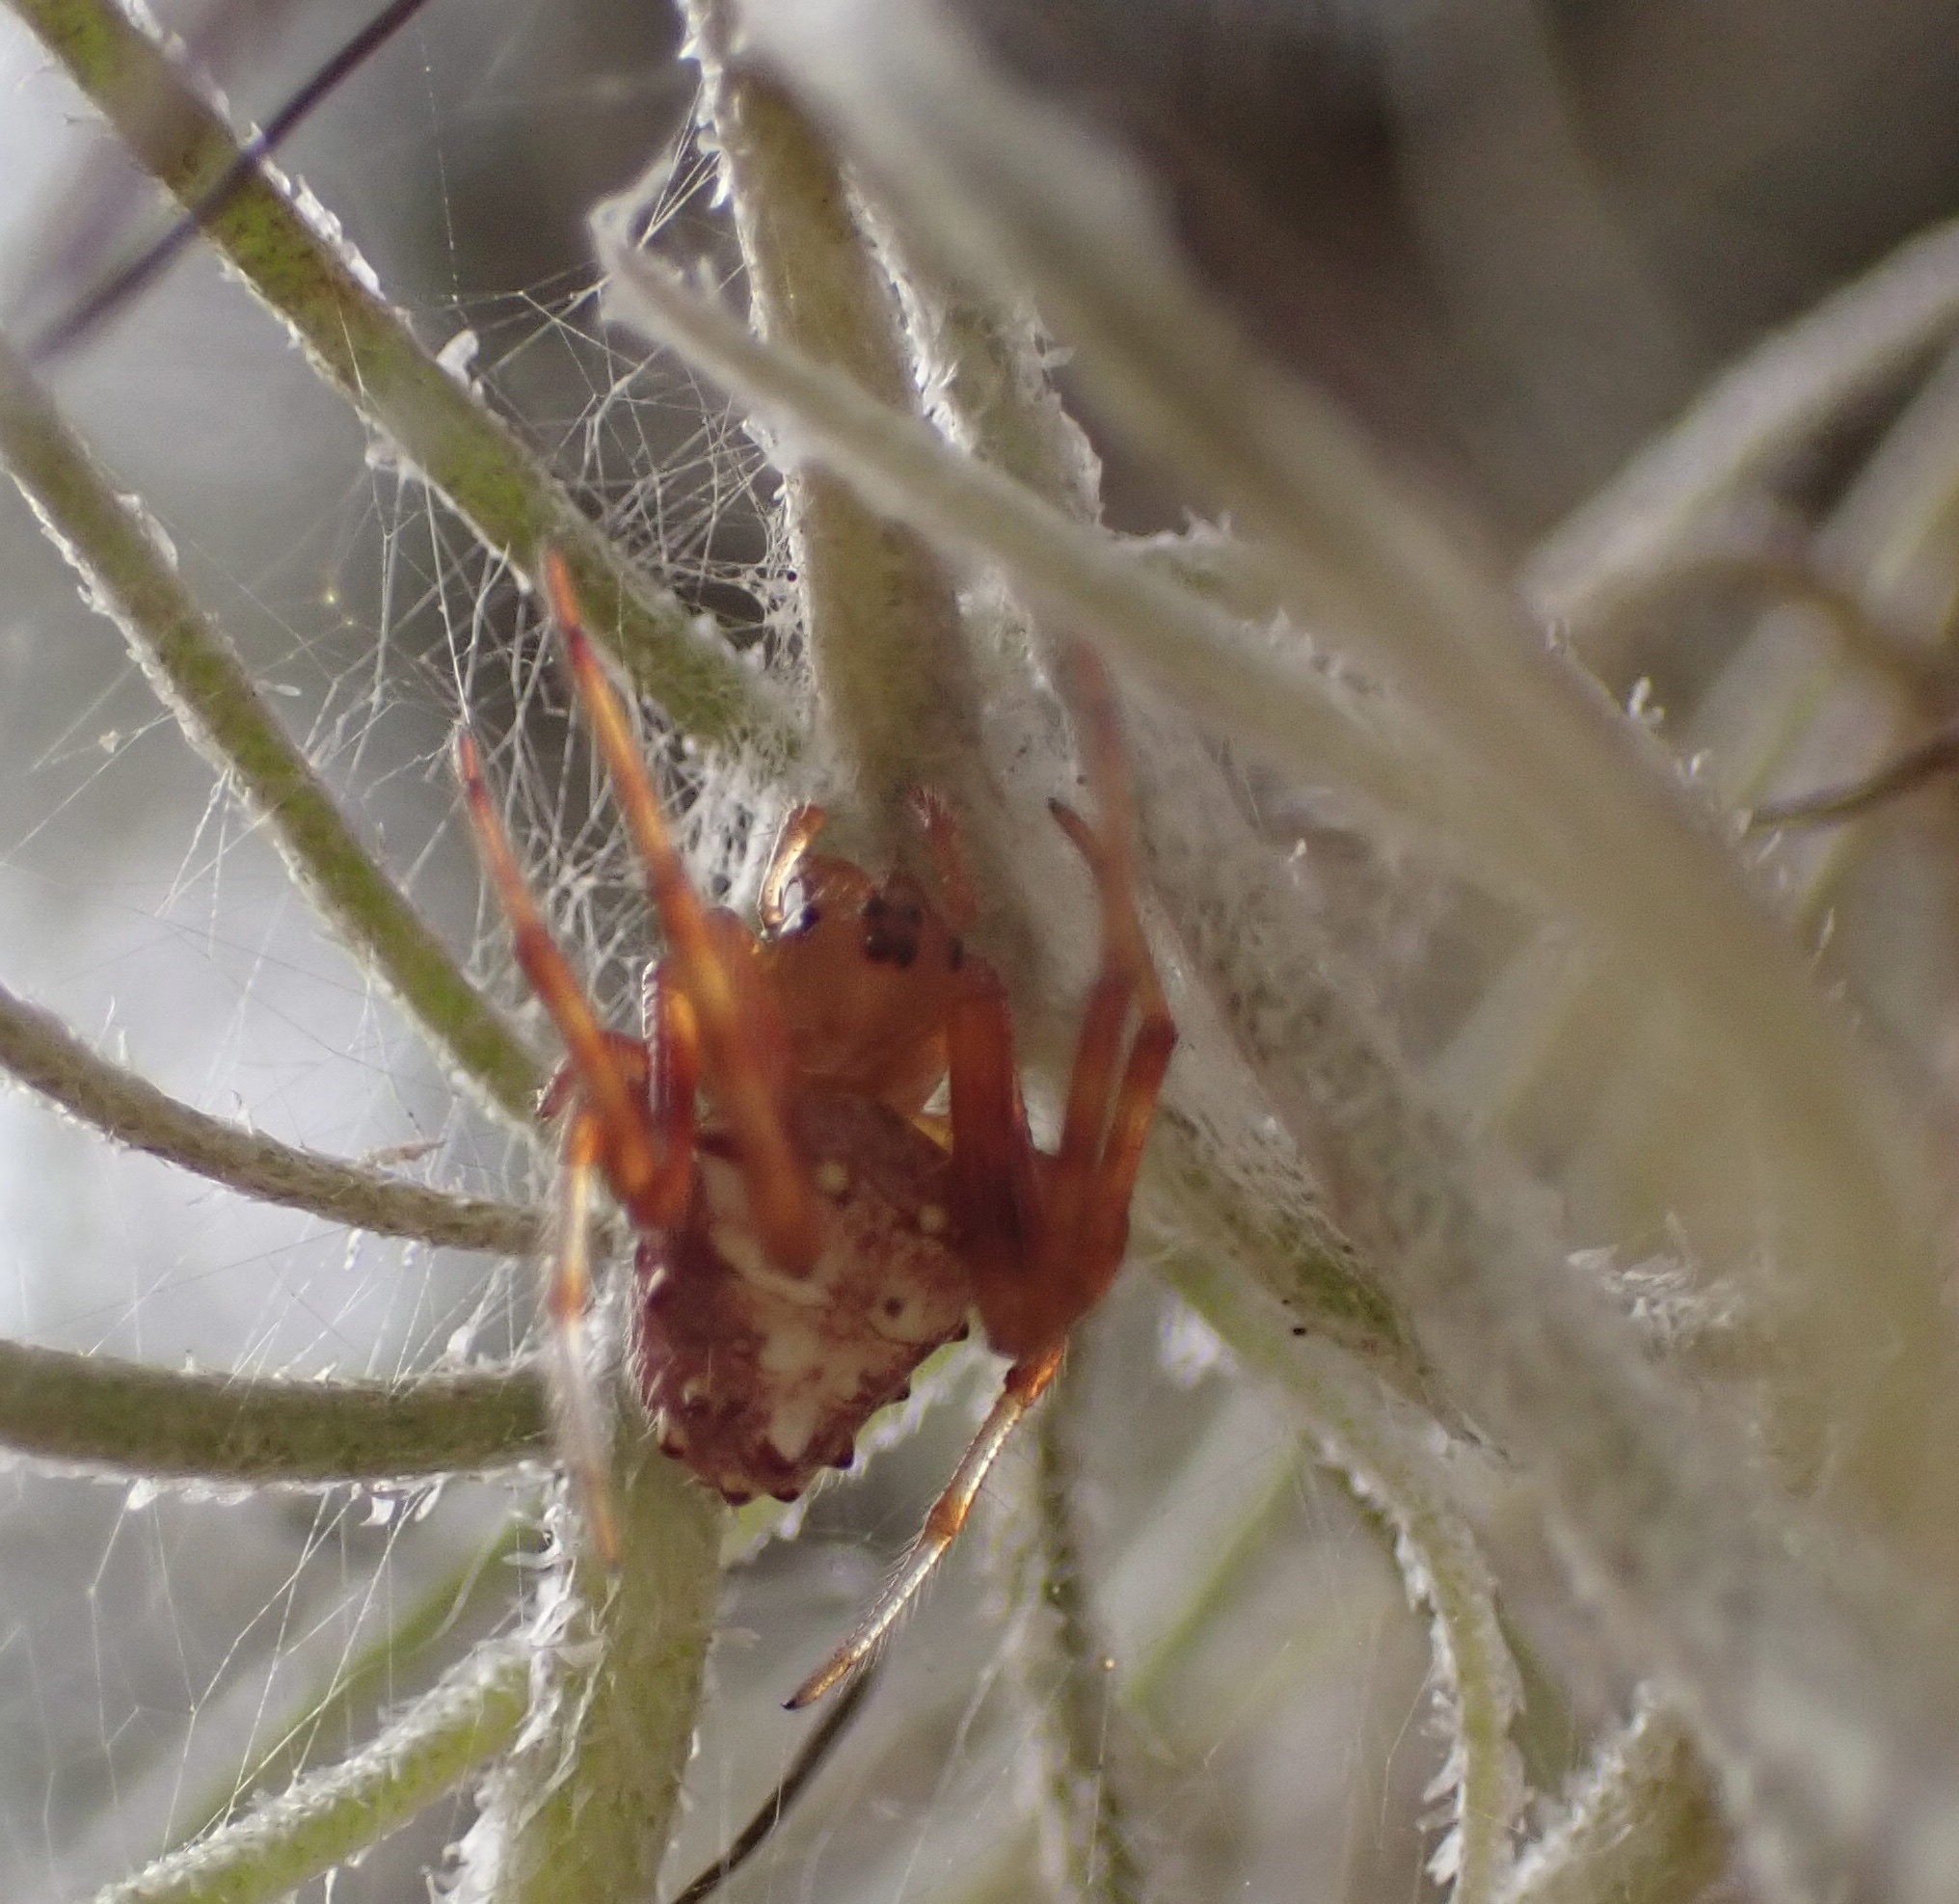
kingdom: Animalia
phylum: Arthropoda
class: Arachnida
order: Araneae
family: Araneidae
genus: Verrucosa
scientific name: Verrucosa arenata
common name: Orb weavers
